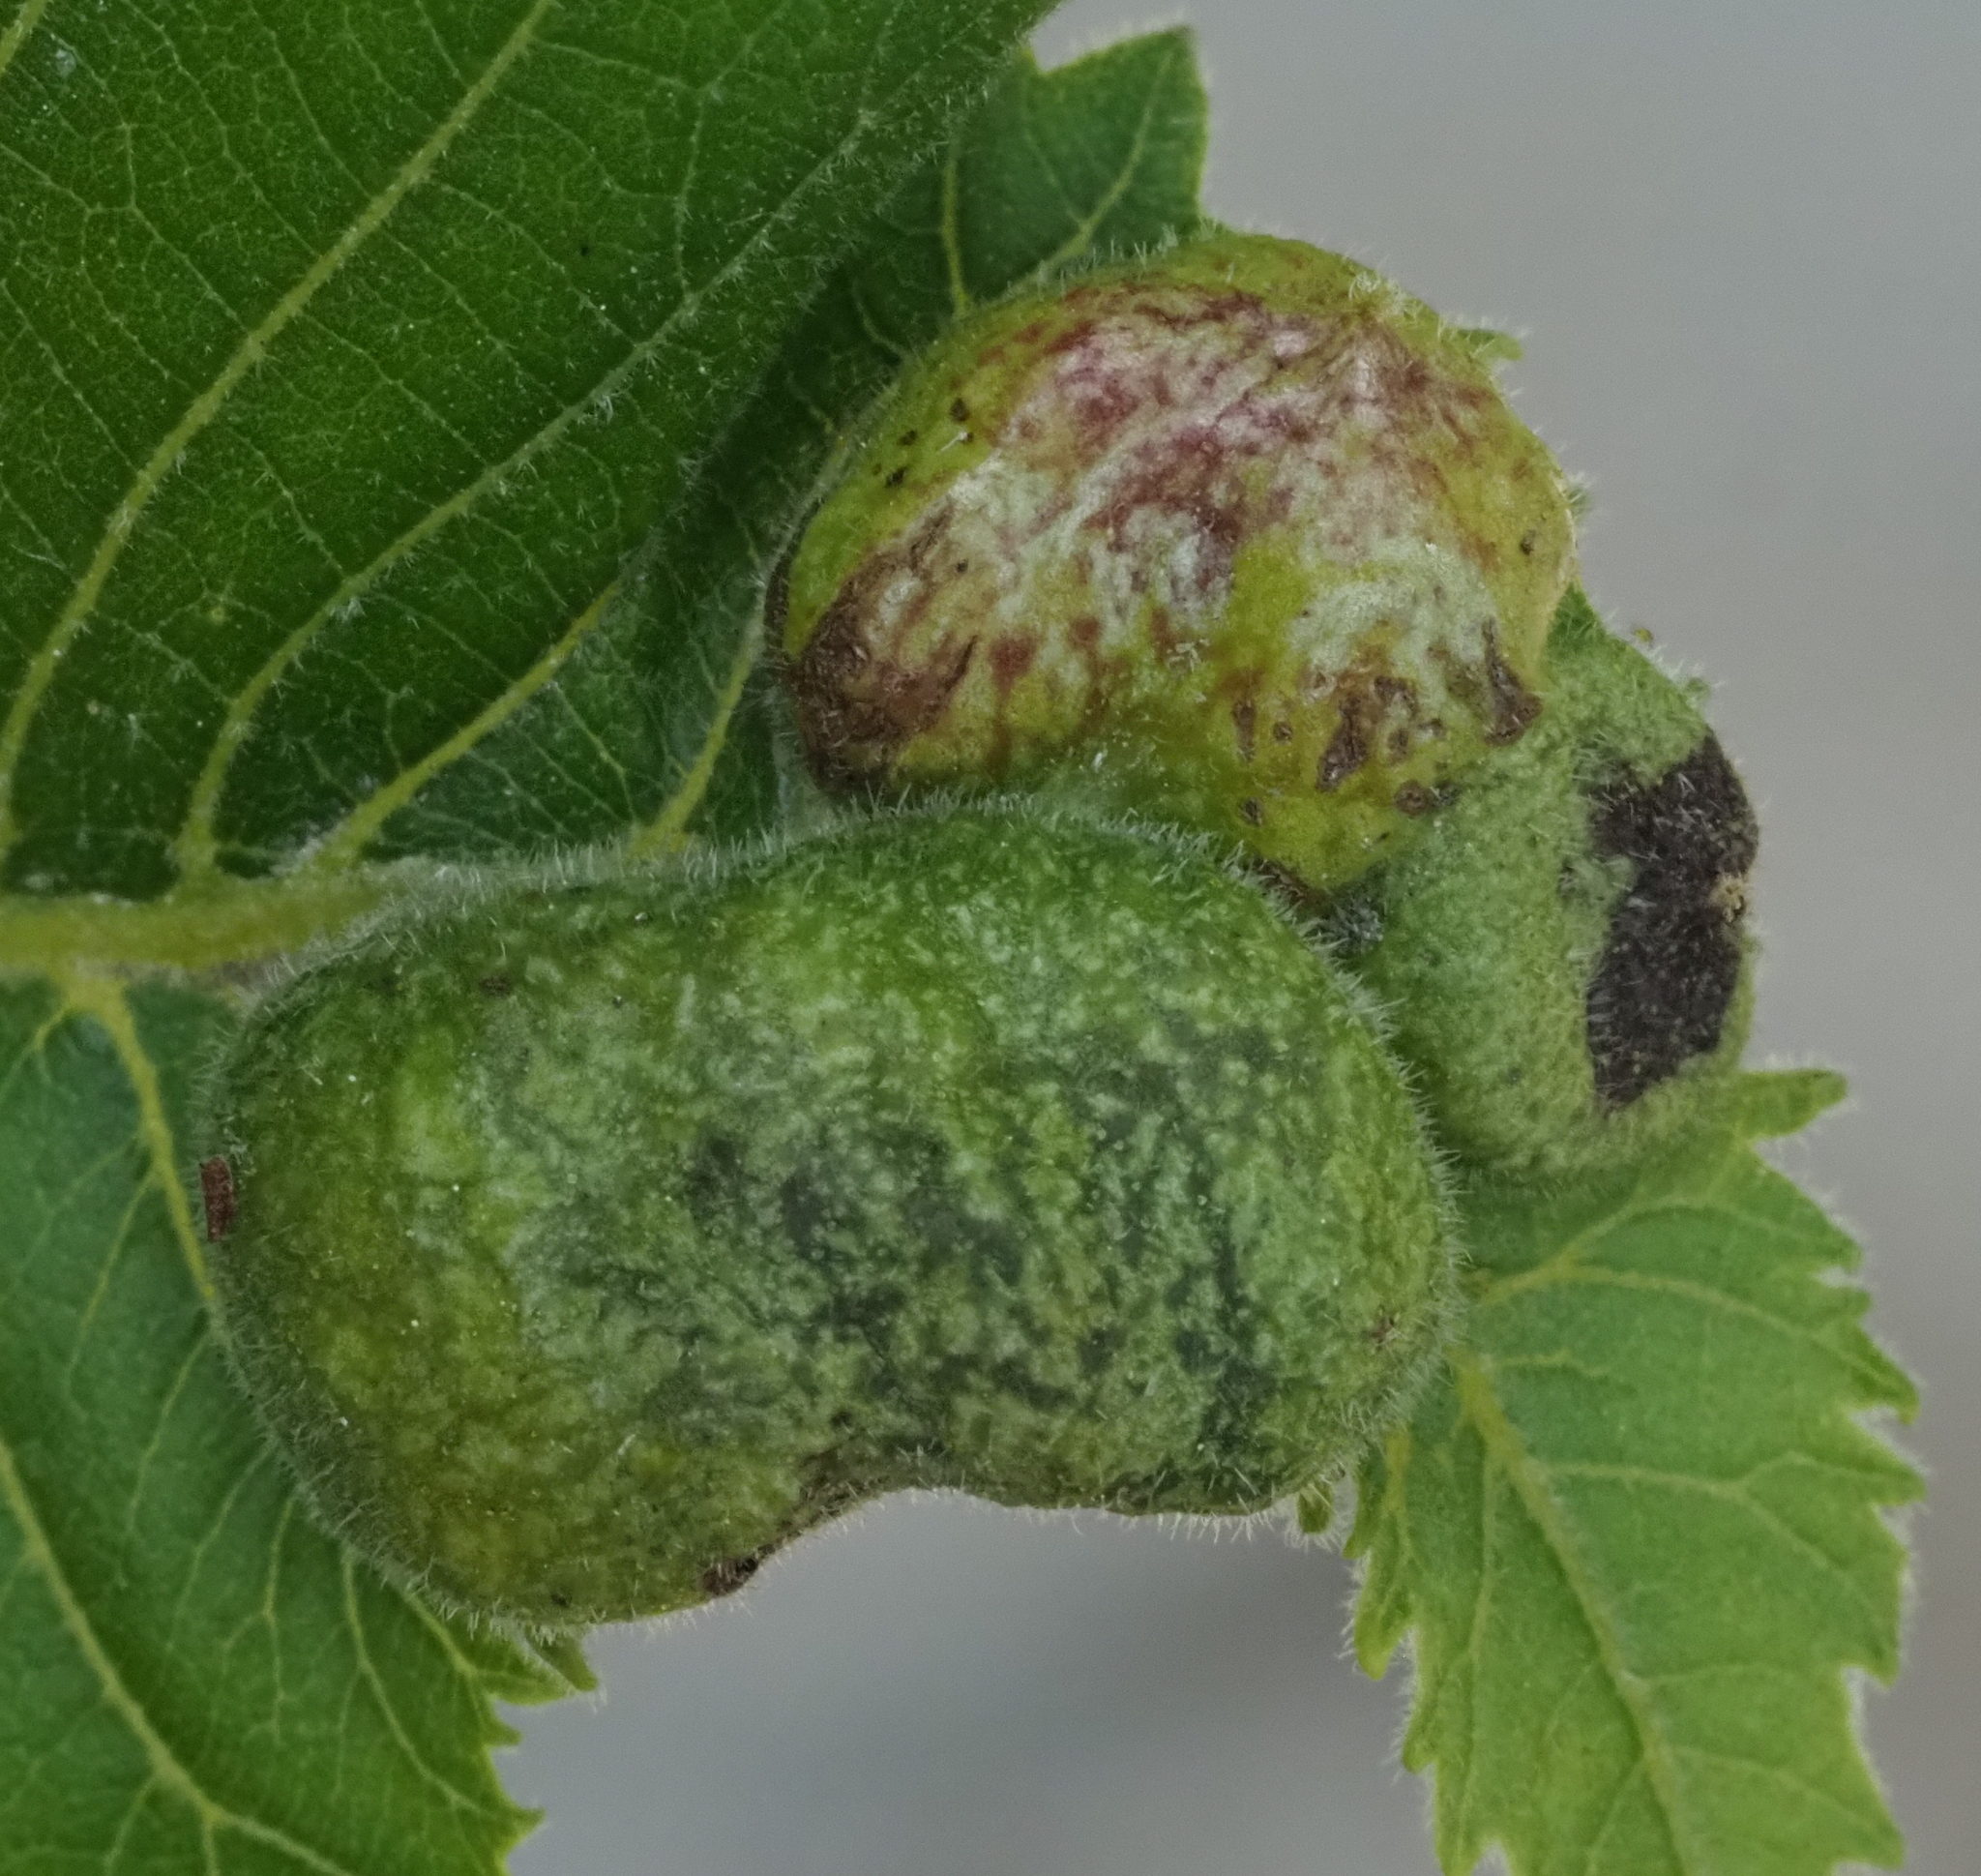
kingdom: Animalia
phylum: Arthropoda
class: Insecta
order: Hemiptera
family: Phylloxeridae
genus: Daktulosphaira
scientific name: Daktulosphaira notabilis
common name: Pecan leaf phylloxera
